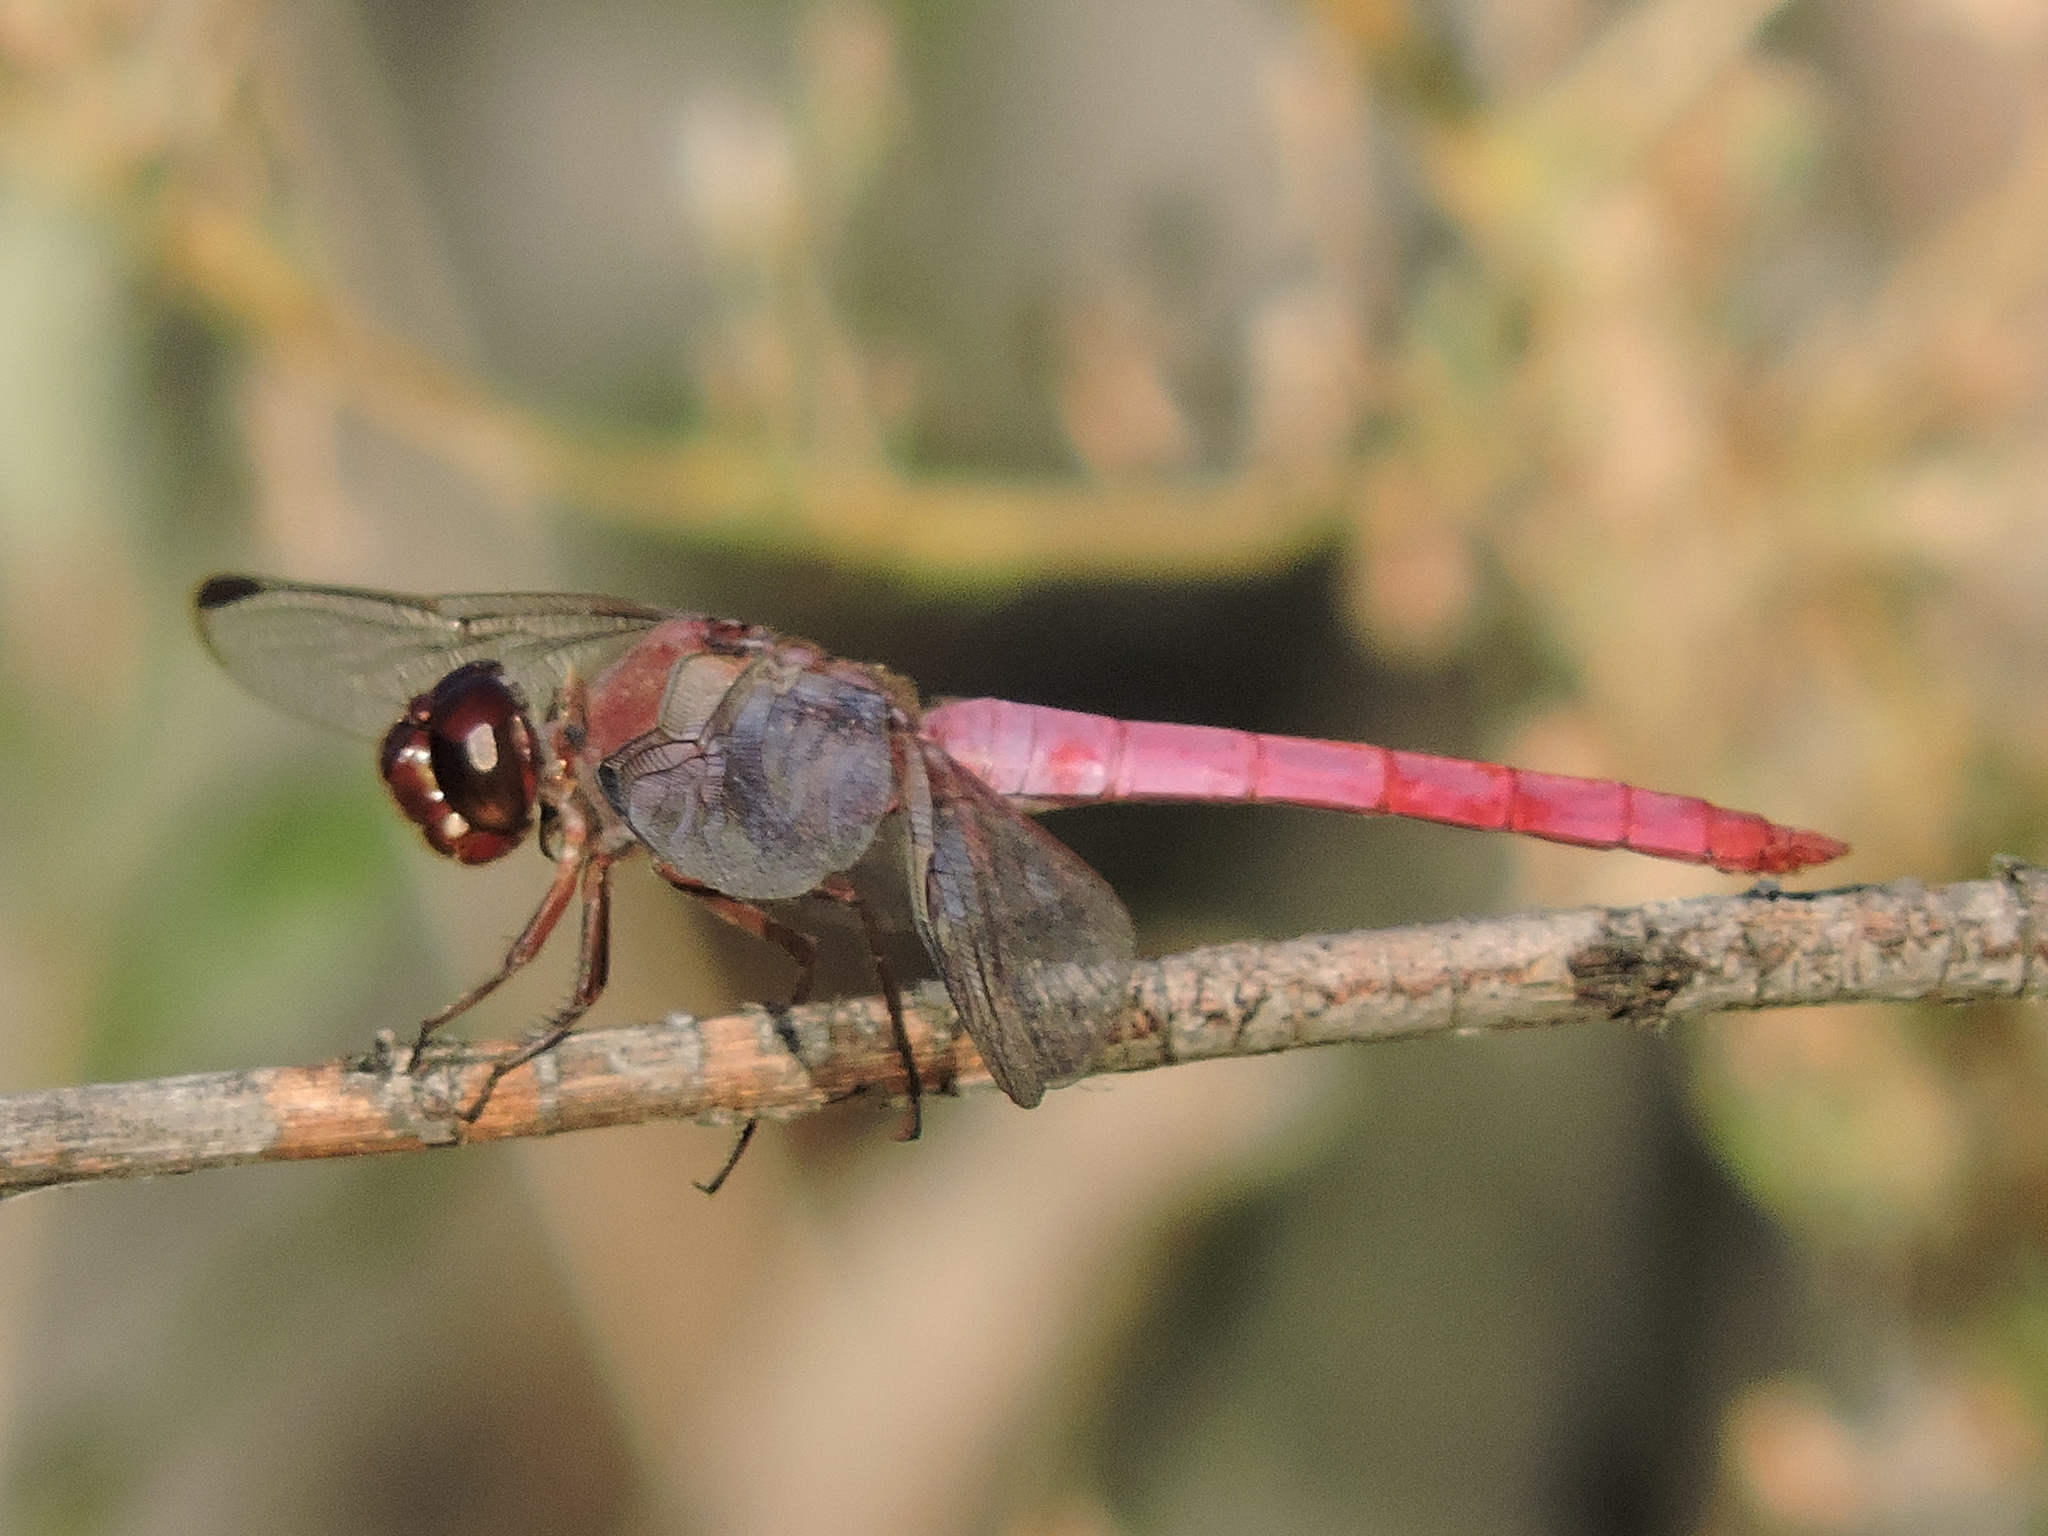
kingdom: Animalia
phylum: Arthropoda
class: Insecta
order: Odonata
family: Libellulidae
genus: Orthemis
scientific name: Orthemis ferruginea
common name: Roseate skimmer
